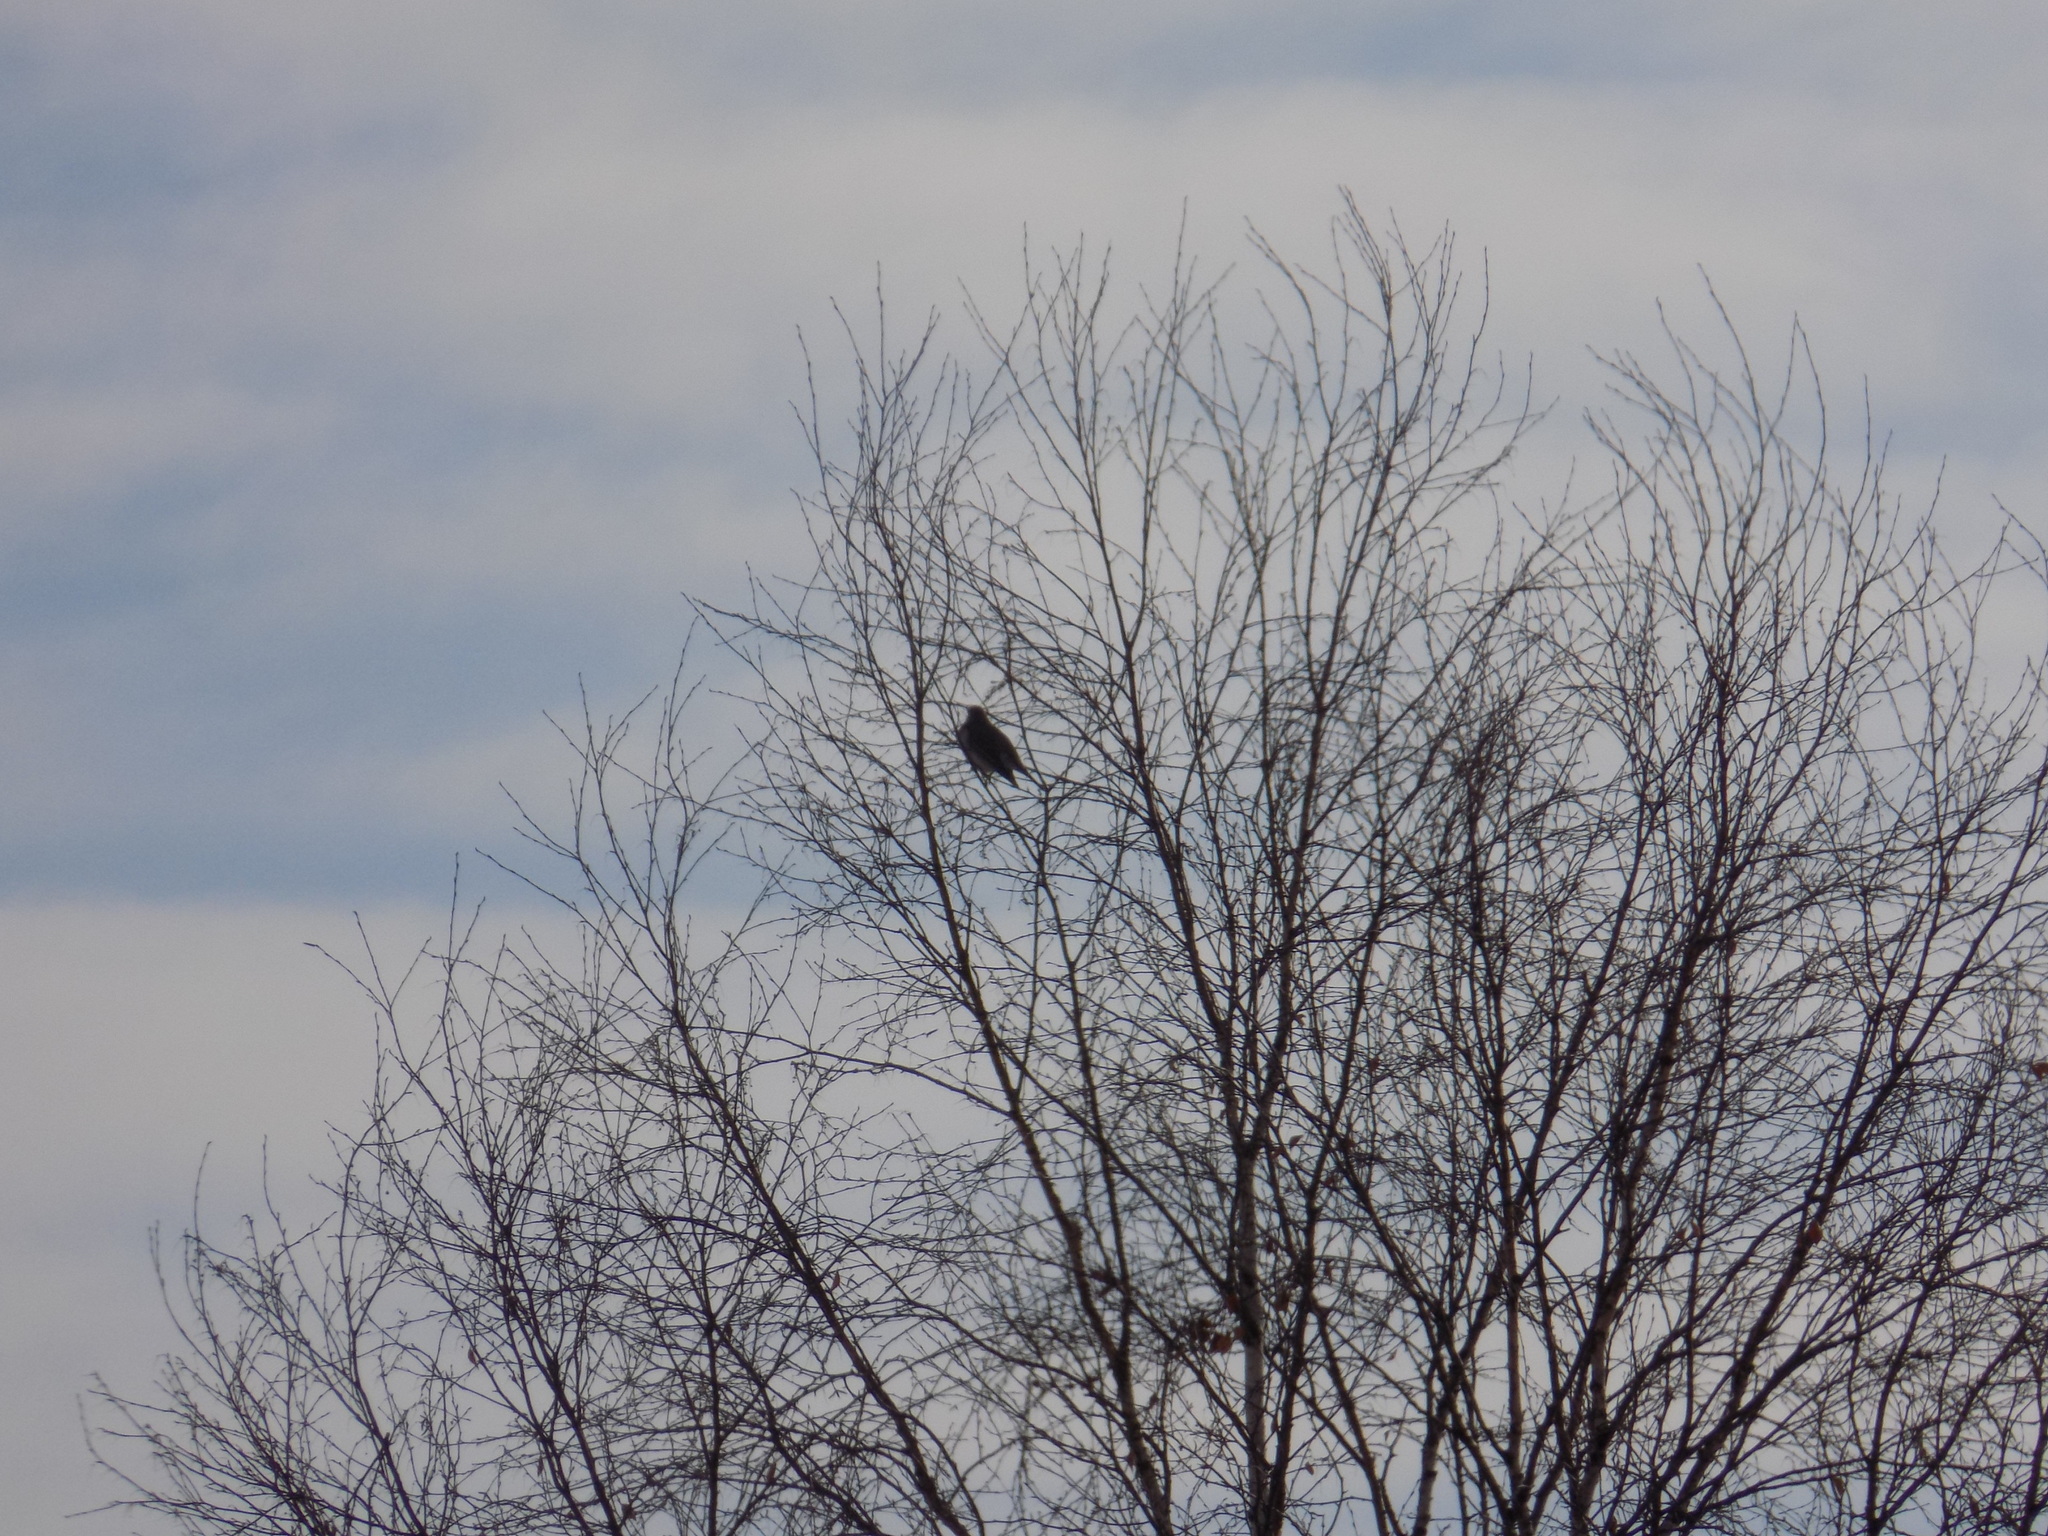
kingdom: Animalia
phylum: Chordata
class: Aves
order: Passeriformes
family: Turdidae
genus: Turdus
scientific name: Turdus atrogularis
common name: Black-throated thrush
